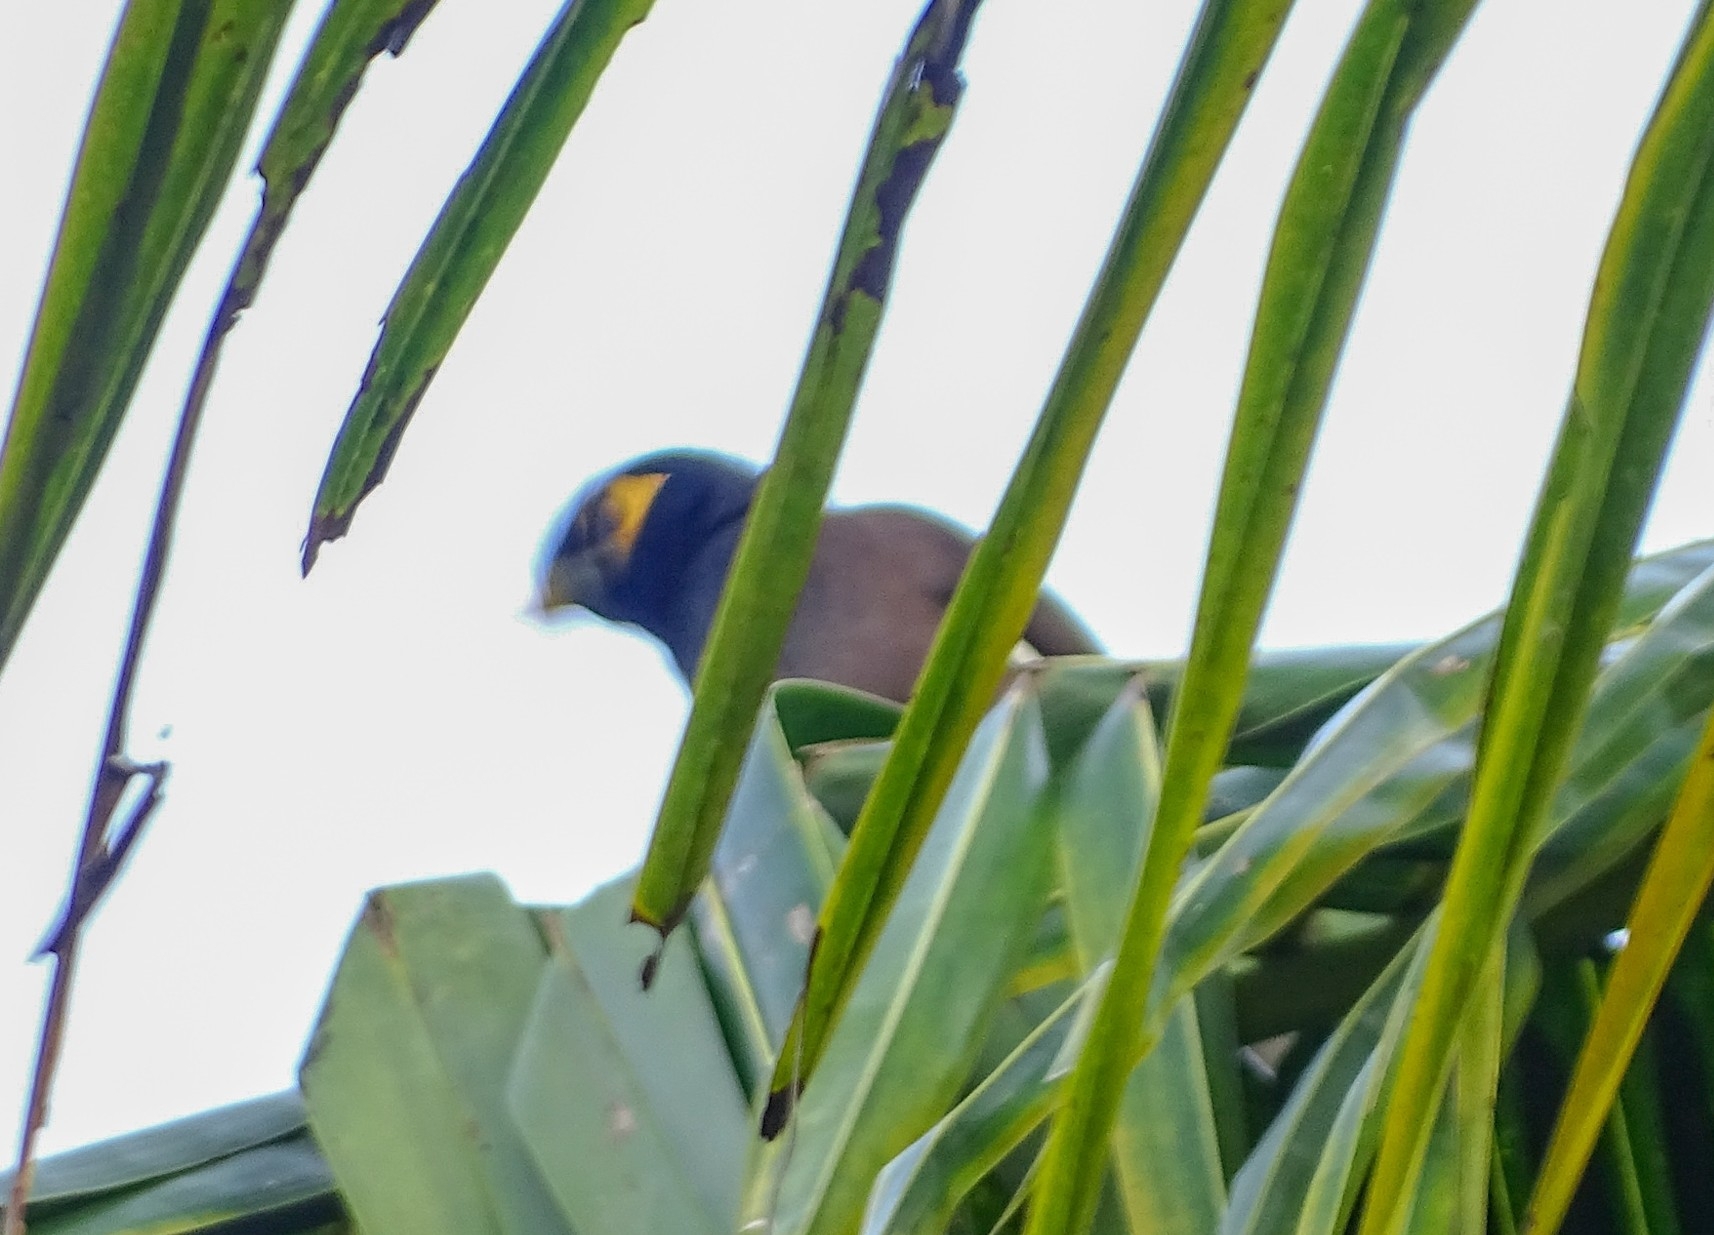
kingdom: Animalia
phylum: Chordata
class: Aves
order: Passeriformes
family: Sturnidae
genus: Acridotheres
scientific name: Acridotheres tristis
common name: Common myna
